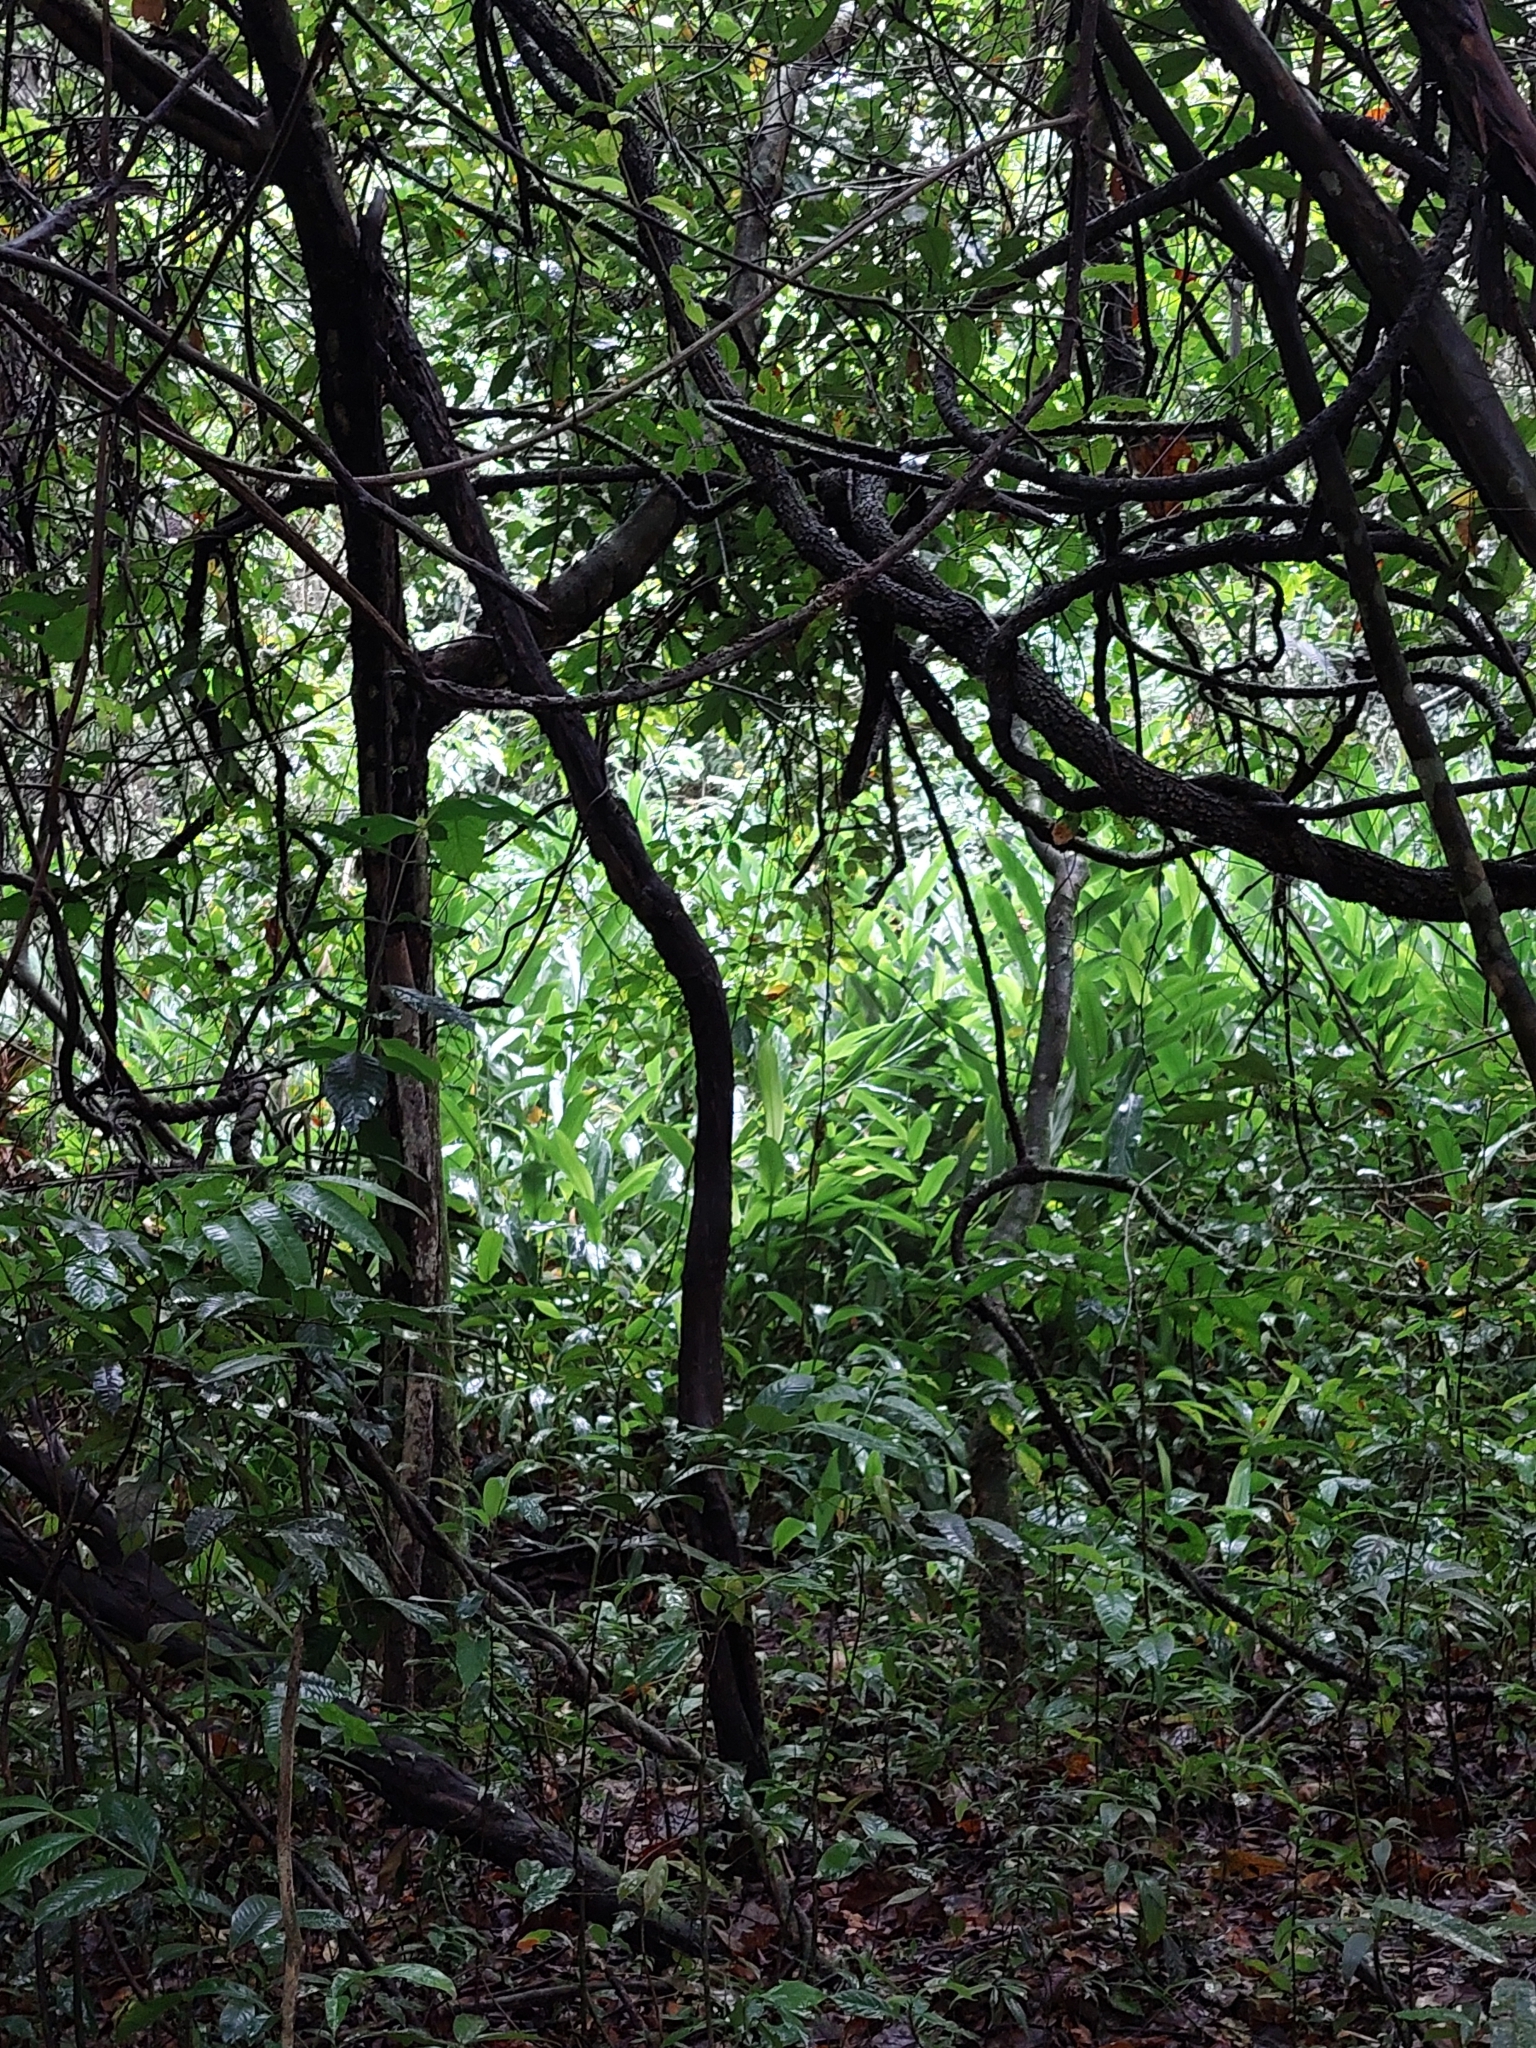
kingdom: Plantae
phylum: Tracheophyta
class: Liliopsida
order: Zingiberales
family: Zingiberaceae
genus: Hedychium
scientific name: Hedychium coronarium
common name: White garland-lily
